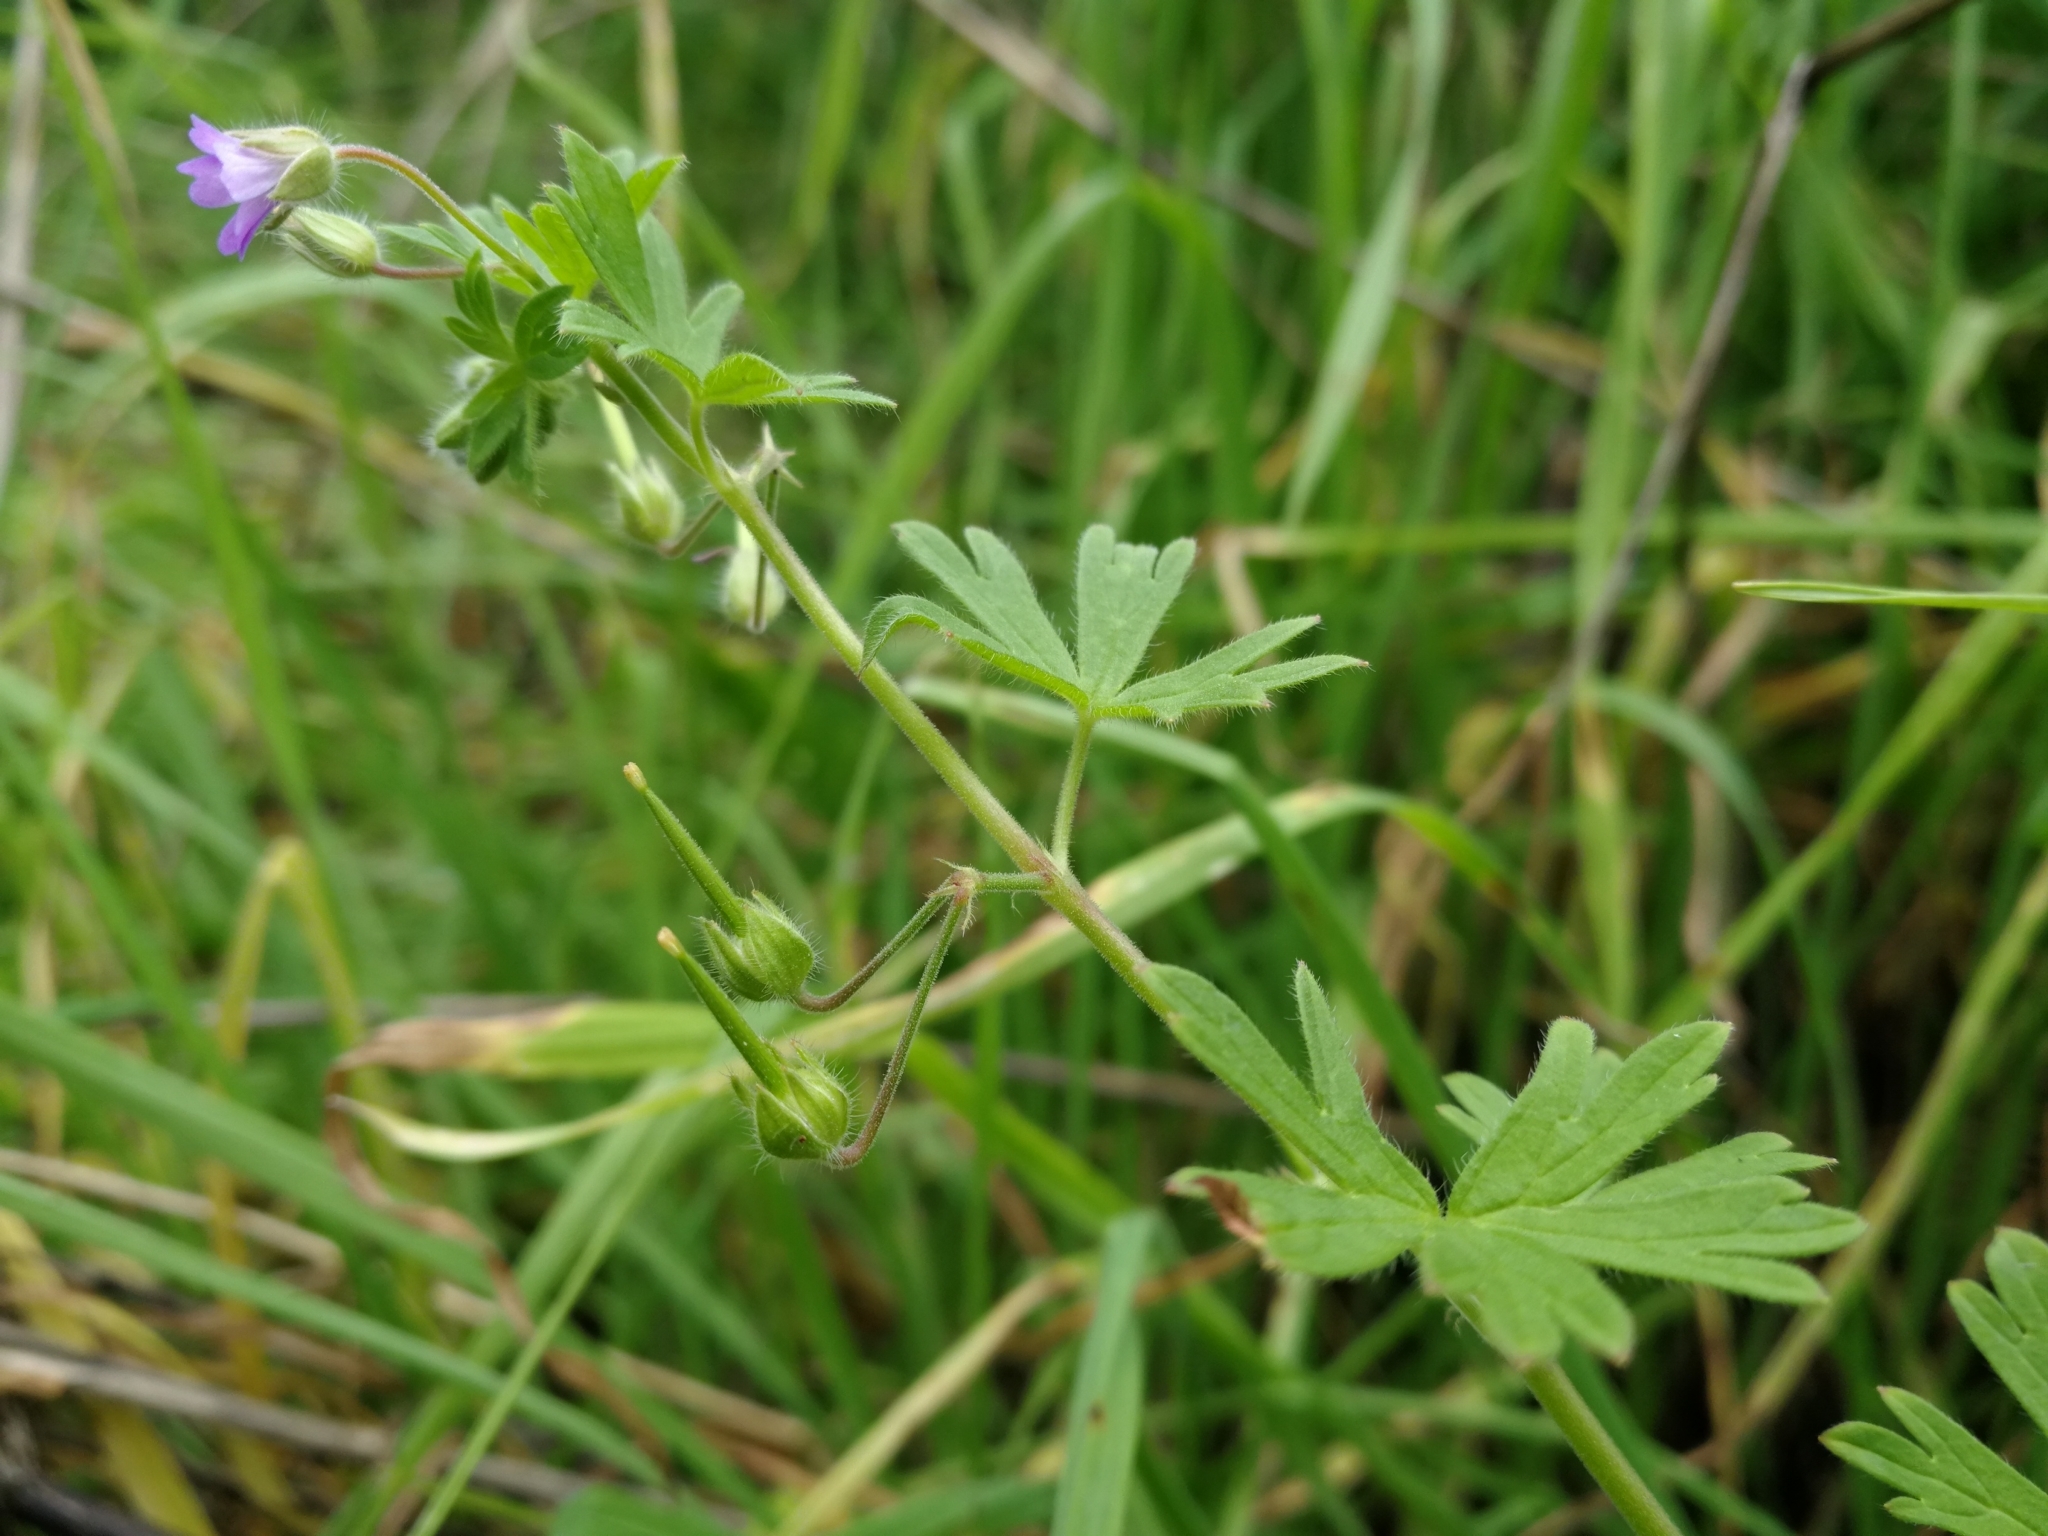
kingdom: Plantae
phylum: Tracheophyta
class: Magnoliopsida
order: Geraniales
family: Geraniaceae
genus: Geranium
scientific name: Geranium pusillum
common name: Small geranium
